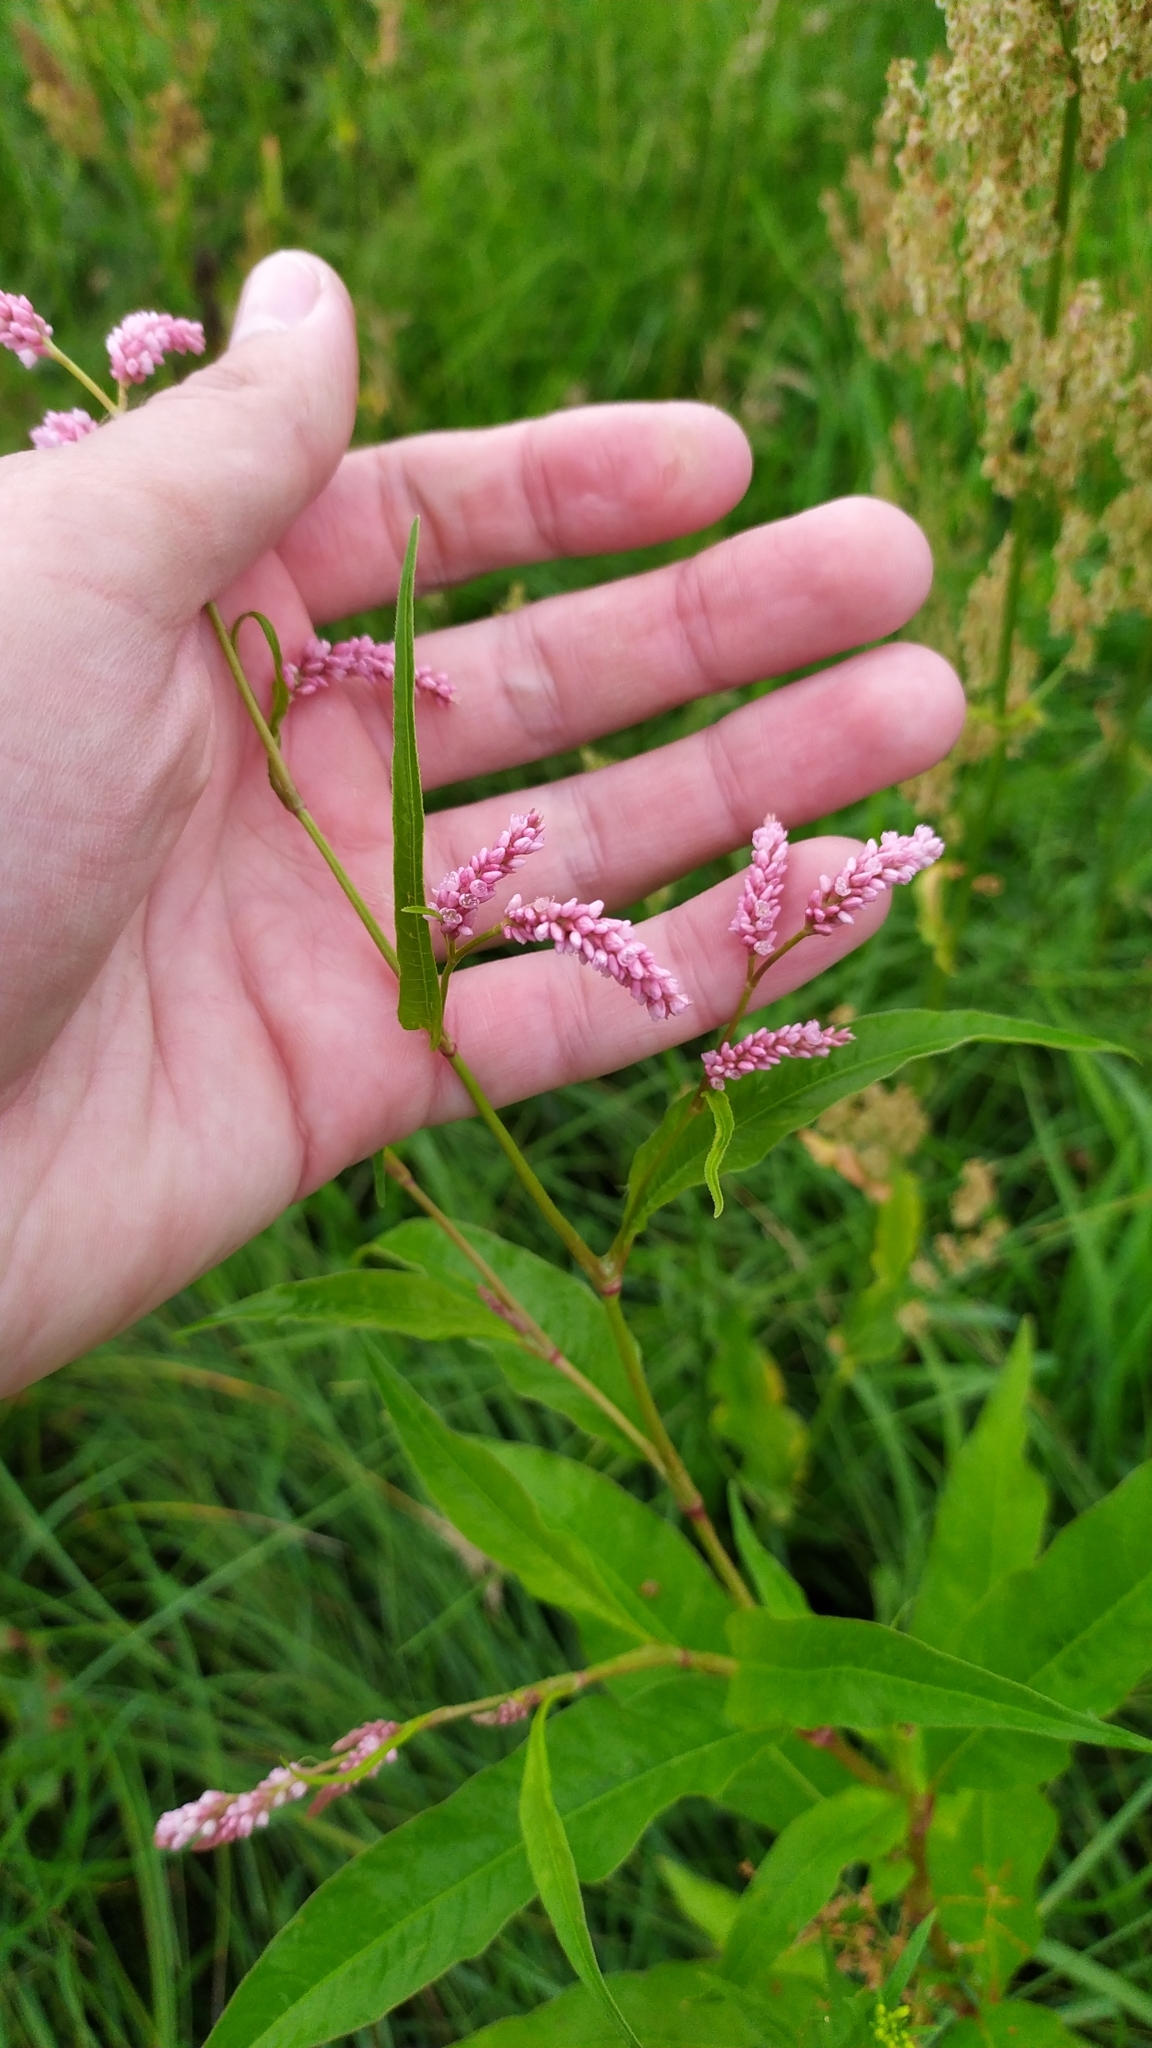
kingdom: Plantae
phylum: Tracheophyta
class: Magnoliopsida
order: Caryophyllales
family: Polygonaceae
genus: Persicaria
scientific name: Persicaria lapathifolia
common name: Curlytop knotweed
